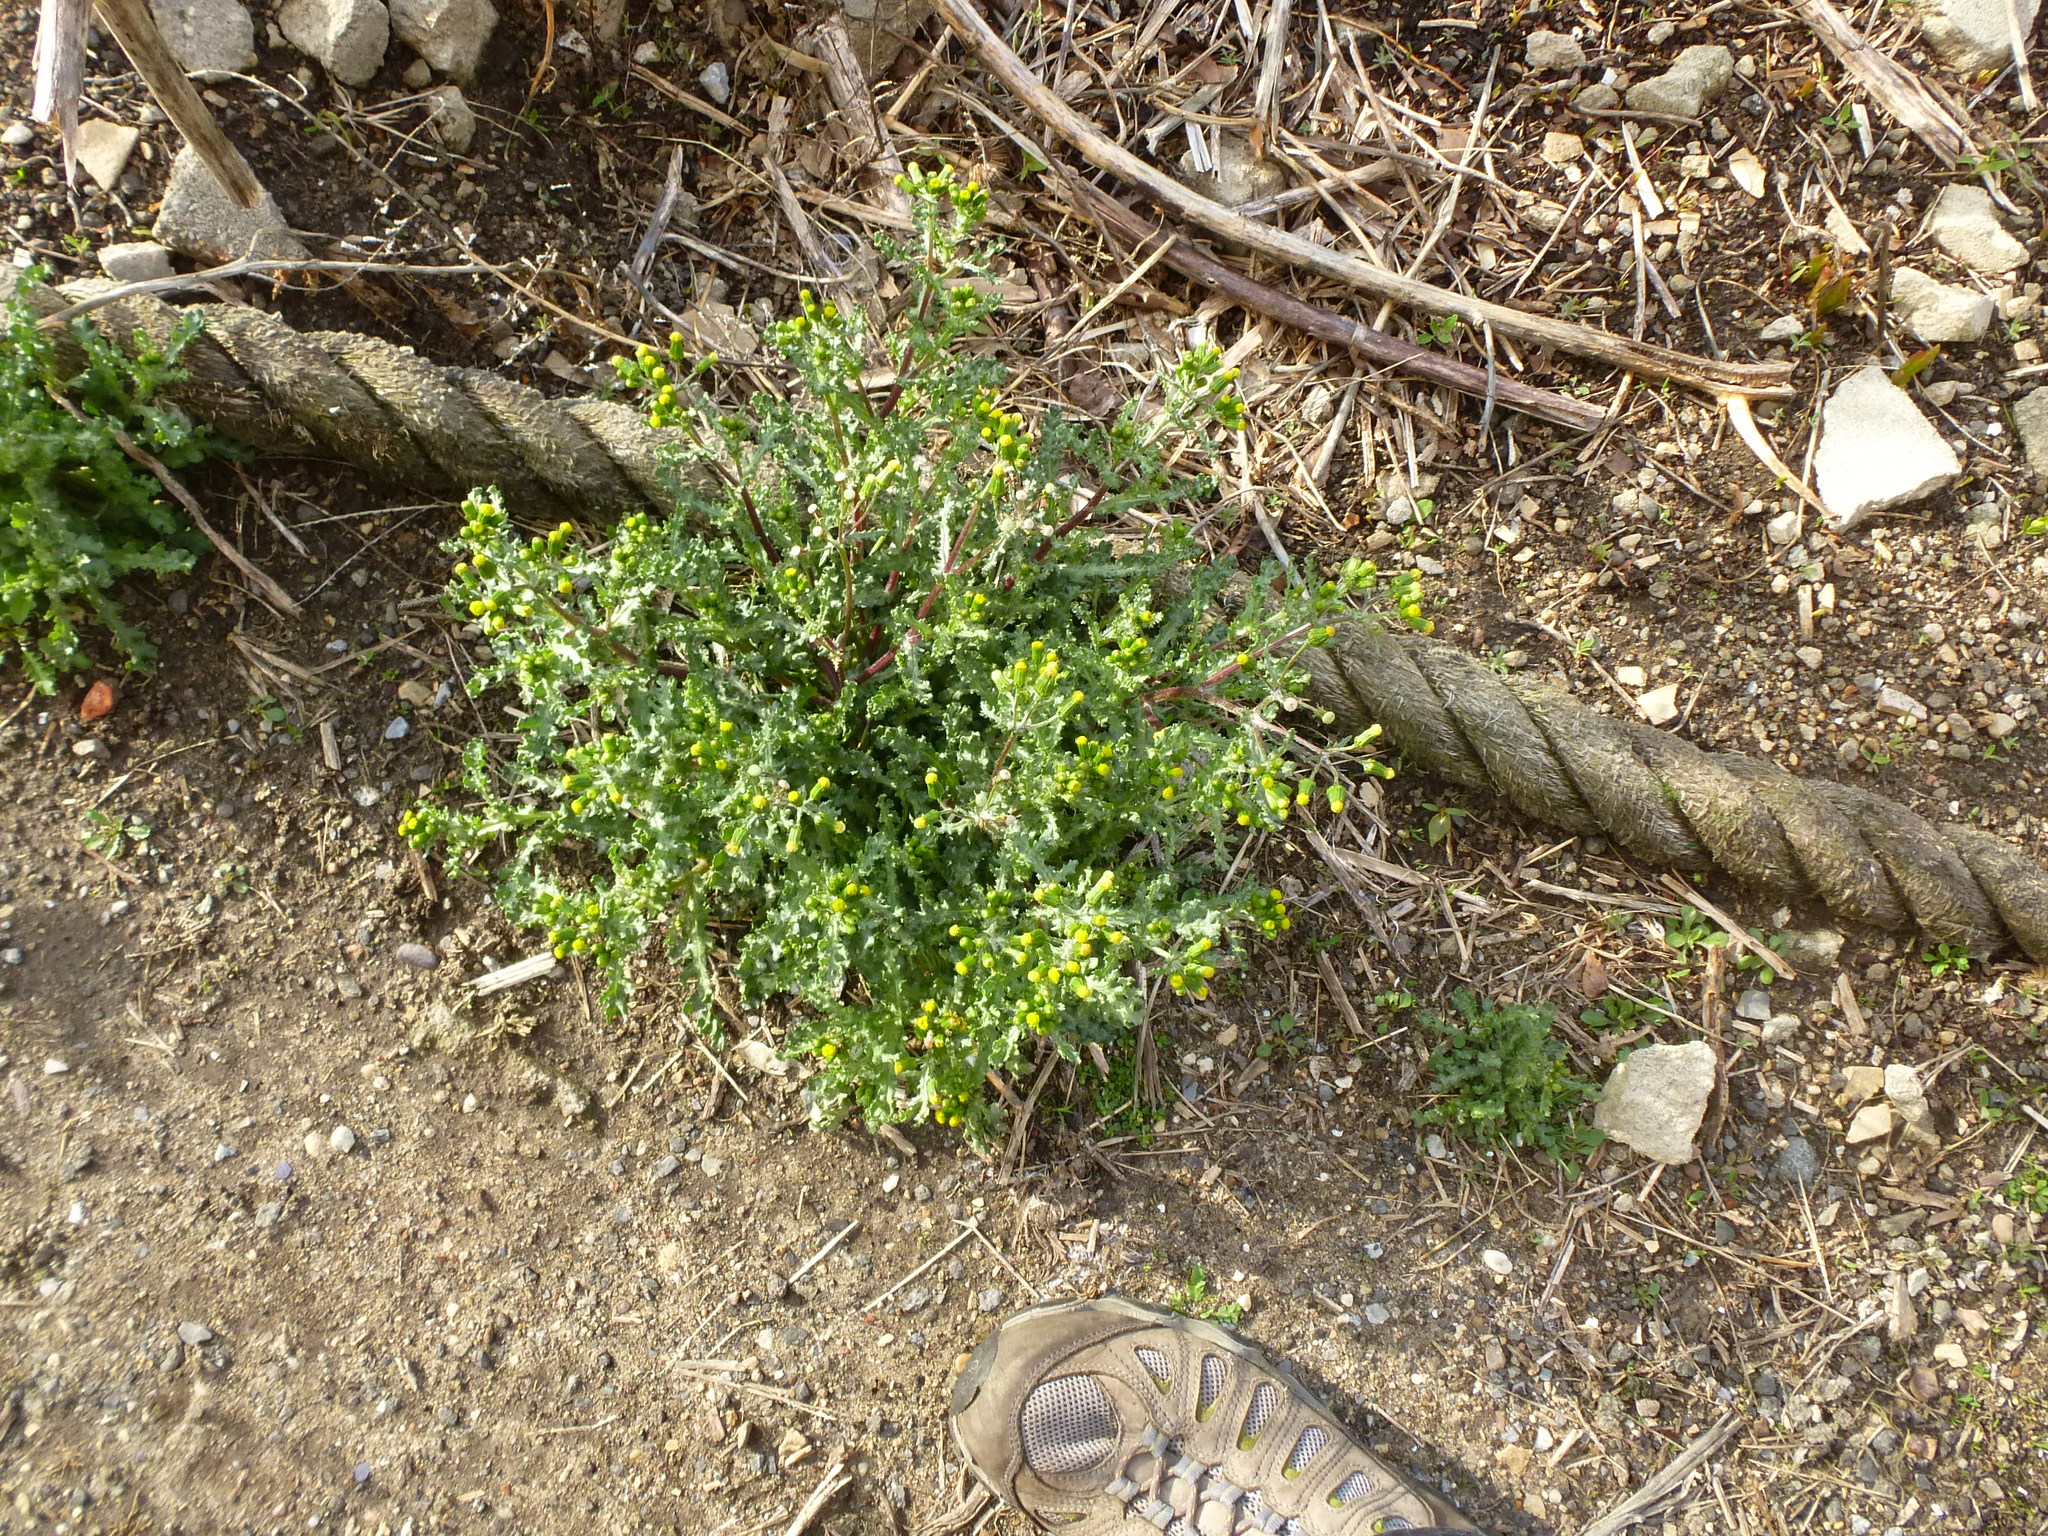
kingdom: Plantae
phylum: Tracheophyta
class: Magnoliopsida
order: Asterales
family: Asteraceae
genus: Senecio
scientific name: Senecio vulgaris
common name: Old-man-in-the-spring
